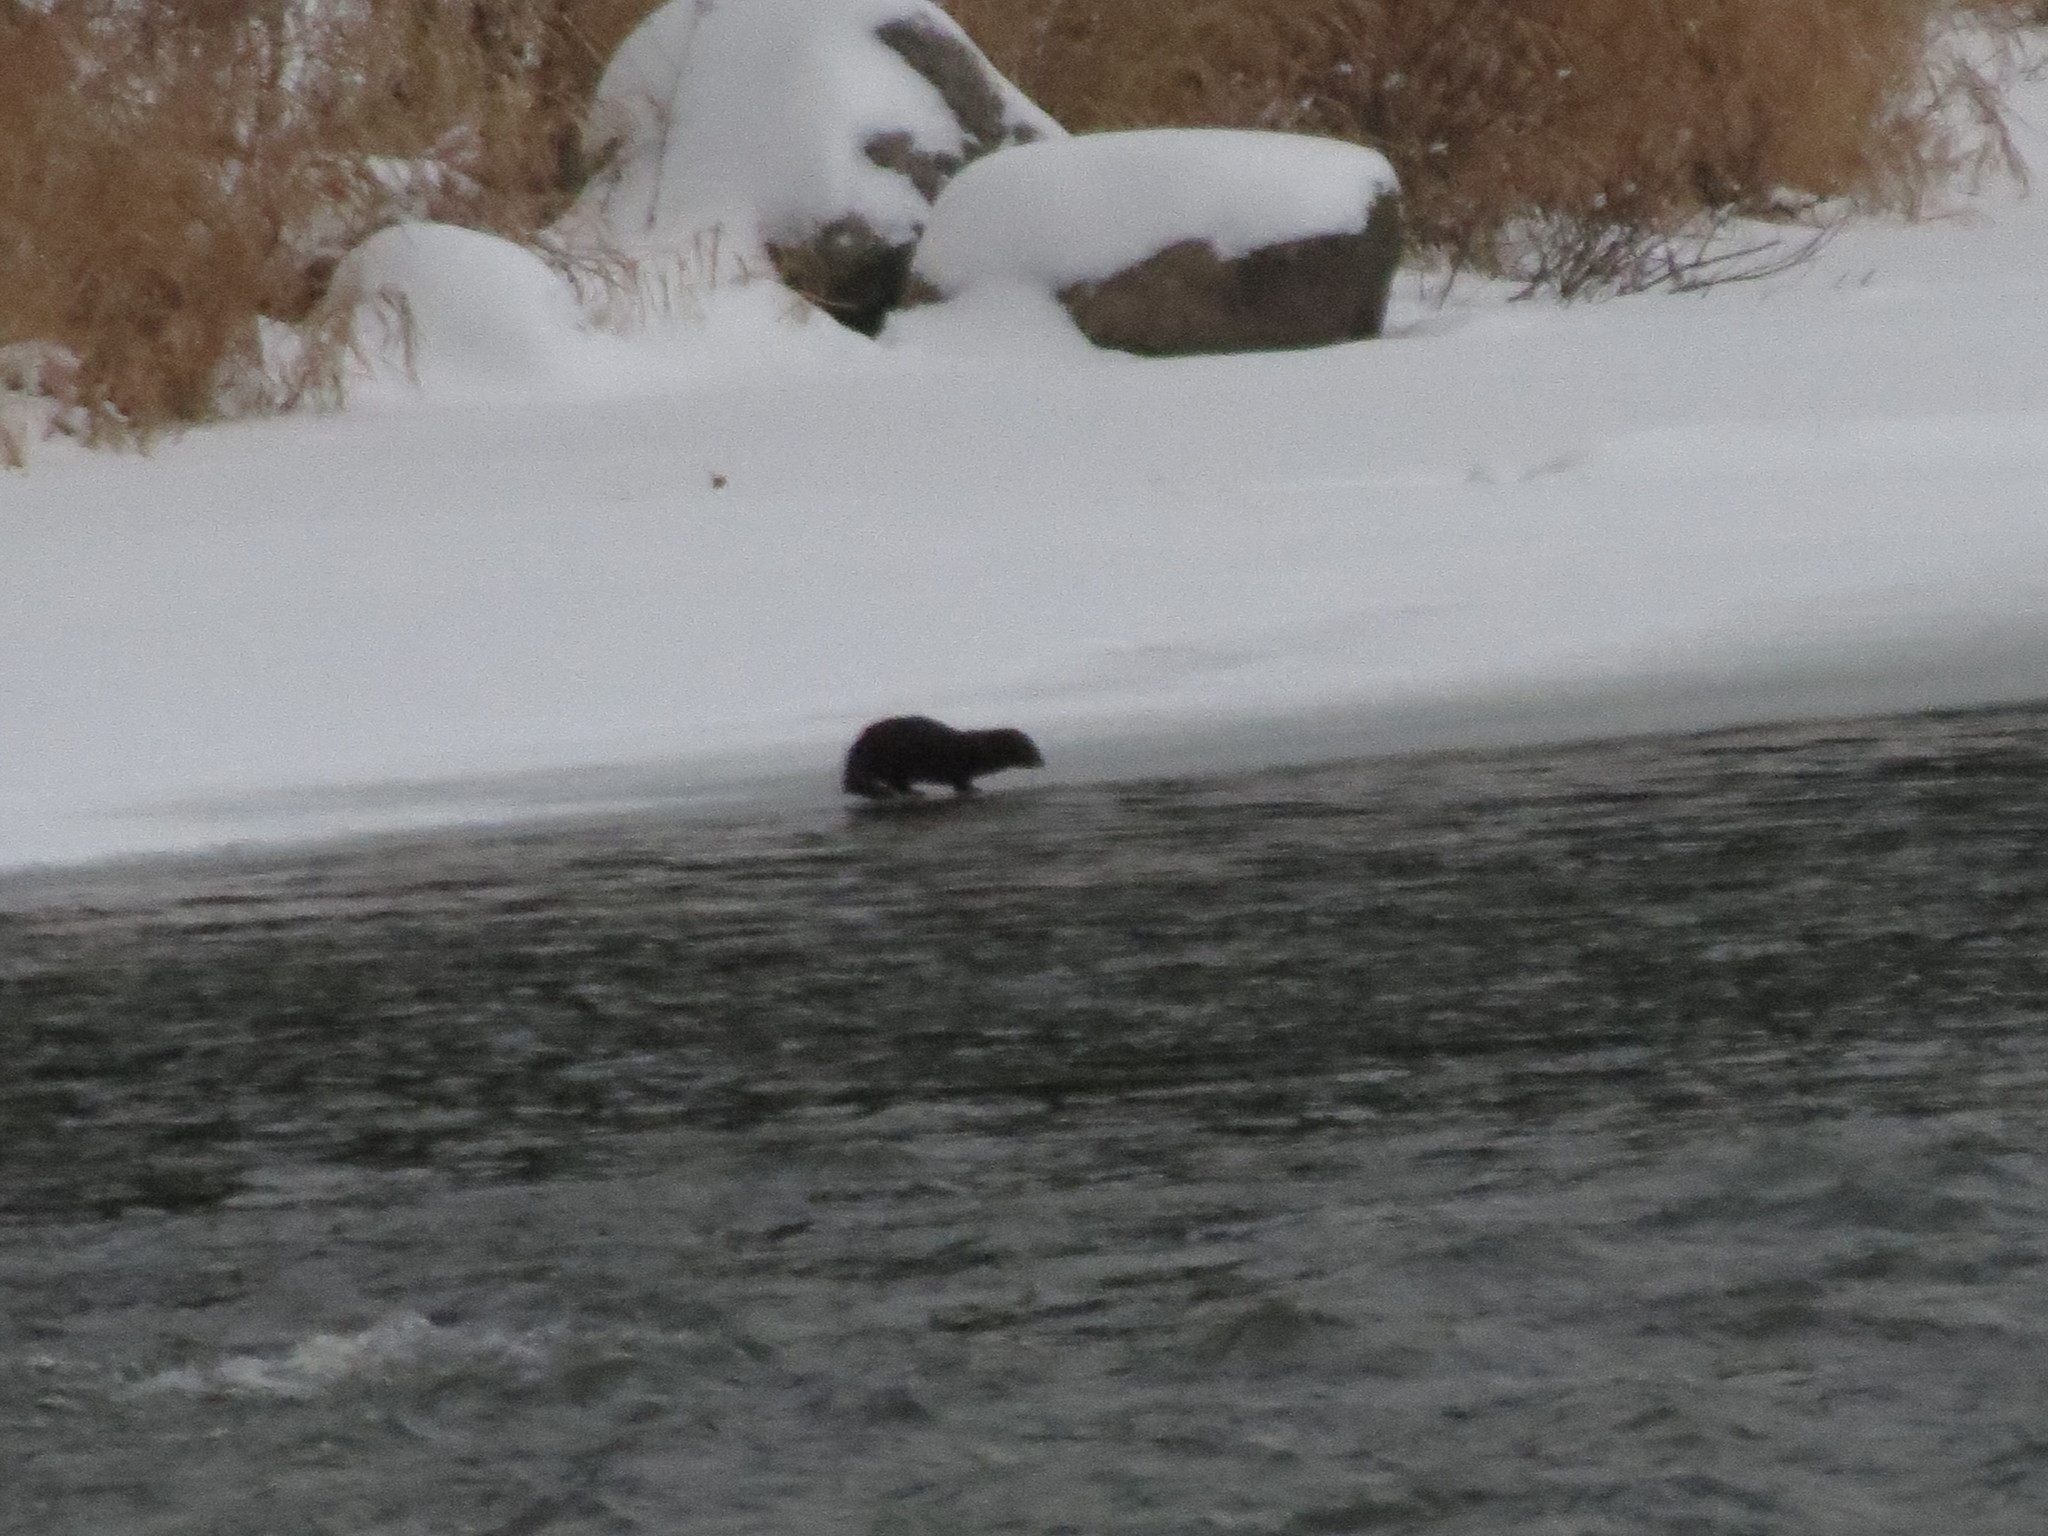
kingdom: Animalia
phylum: Chordata
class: Mammalia
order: Carnivora
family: Mustelidae
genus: Mustela
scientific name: Mustela
